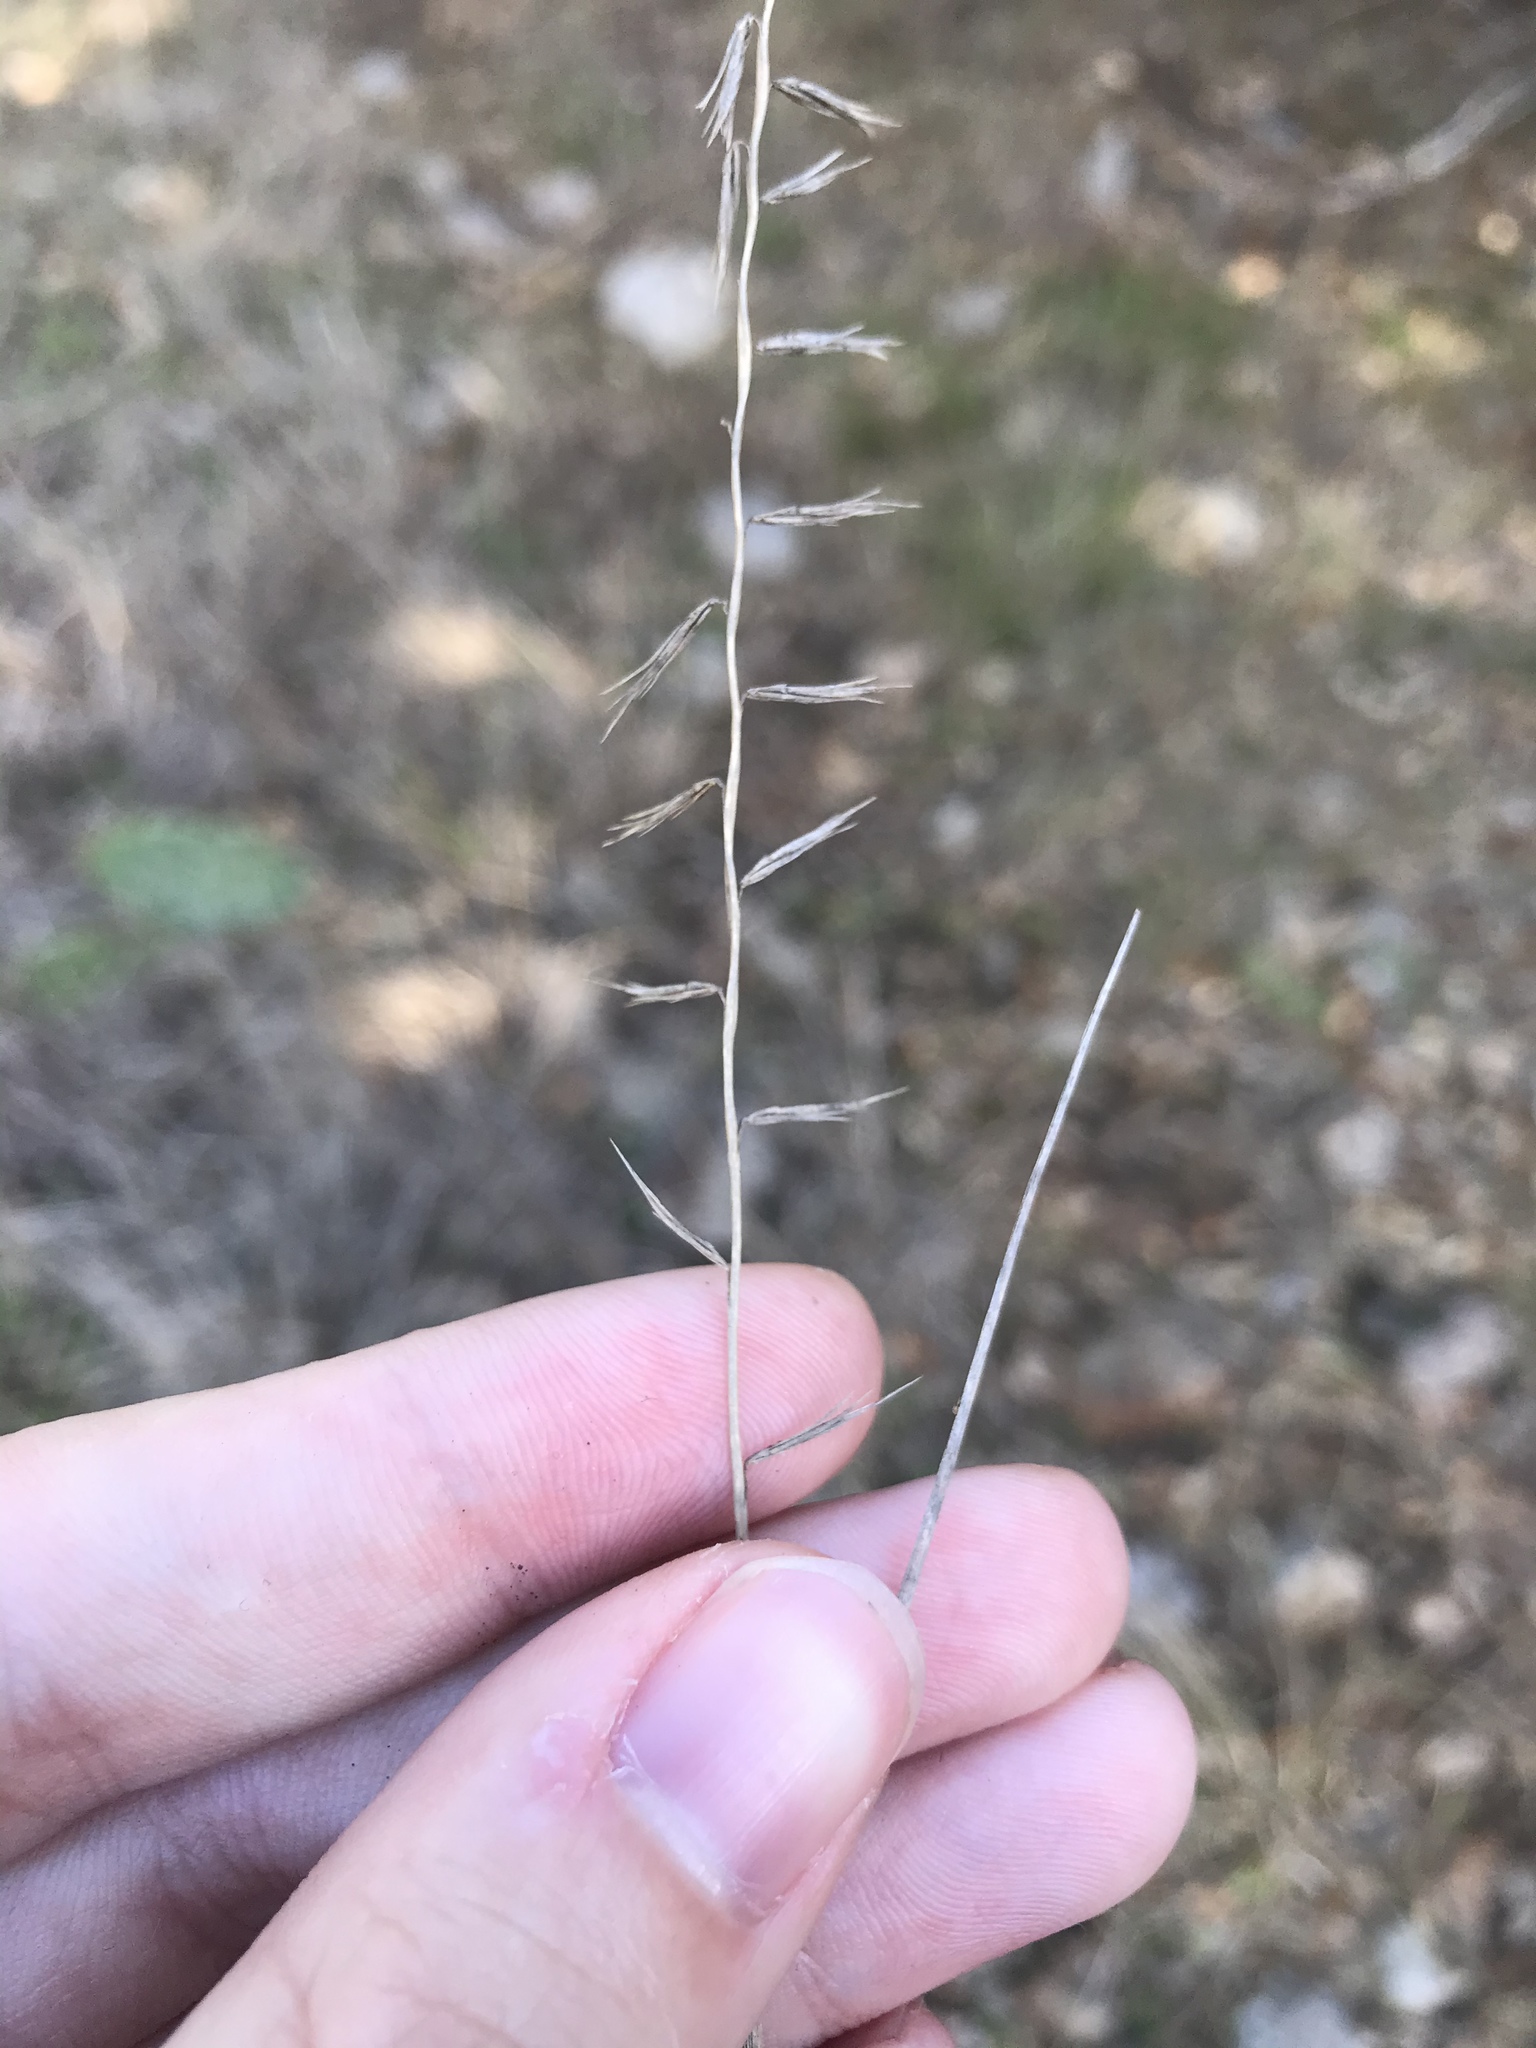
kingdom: Plantae
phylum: Tracheophyta
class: Liliopsida
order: Poales
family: Poaceae
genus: Bouteloua
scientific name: Bouteloua curtipendula
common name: Side-oats grama
